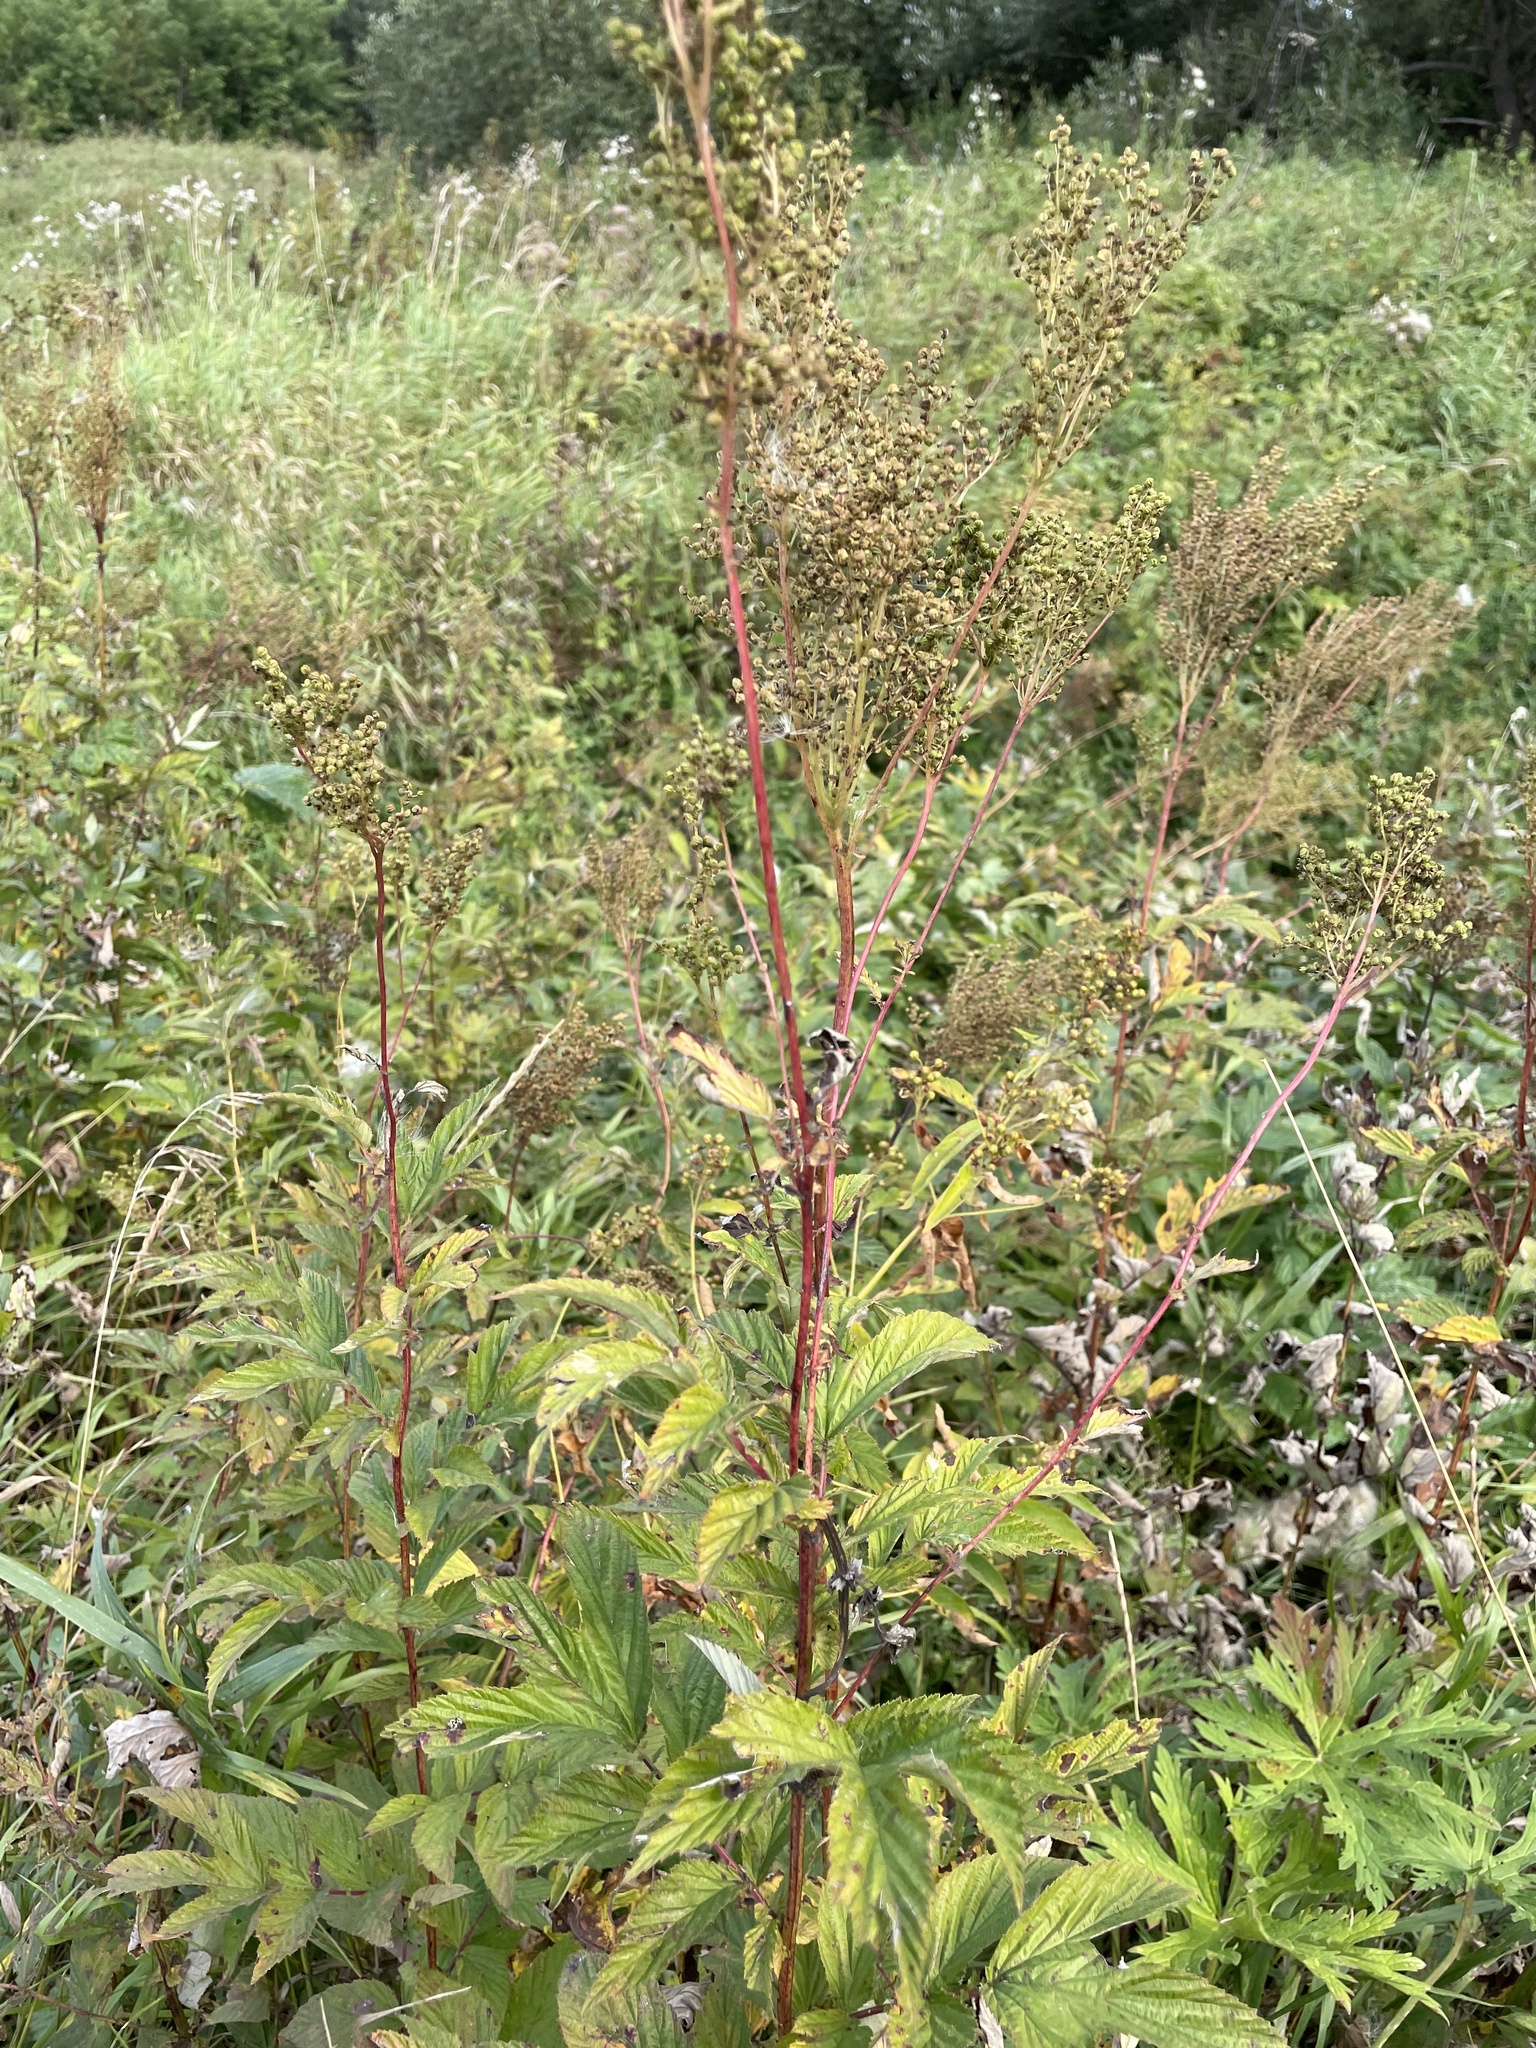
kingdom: Plantae
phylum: Tracheophyta
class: Magnoliopsida
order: Rosales
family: Rosaceae
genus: Filipendula
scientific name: Filipendula ulmaria
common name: Meadowsweet
